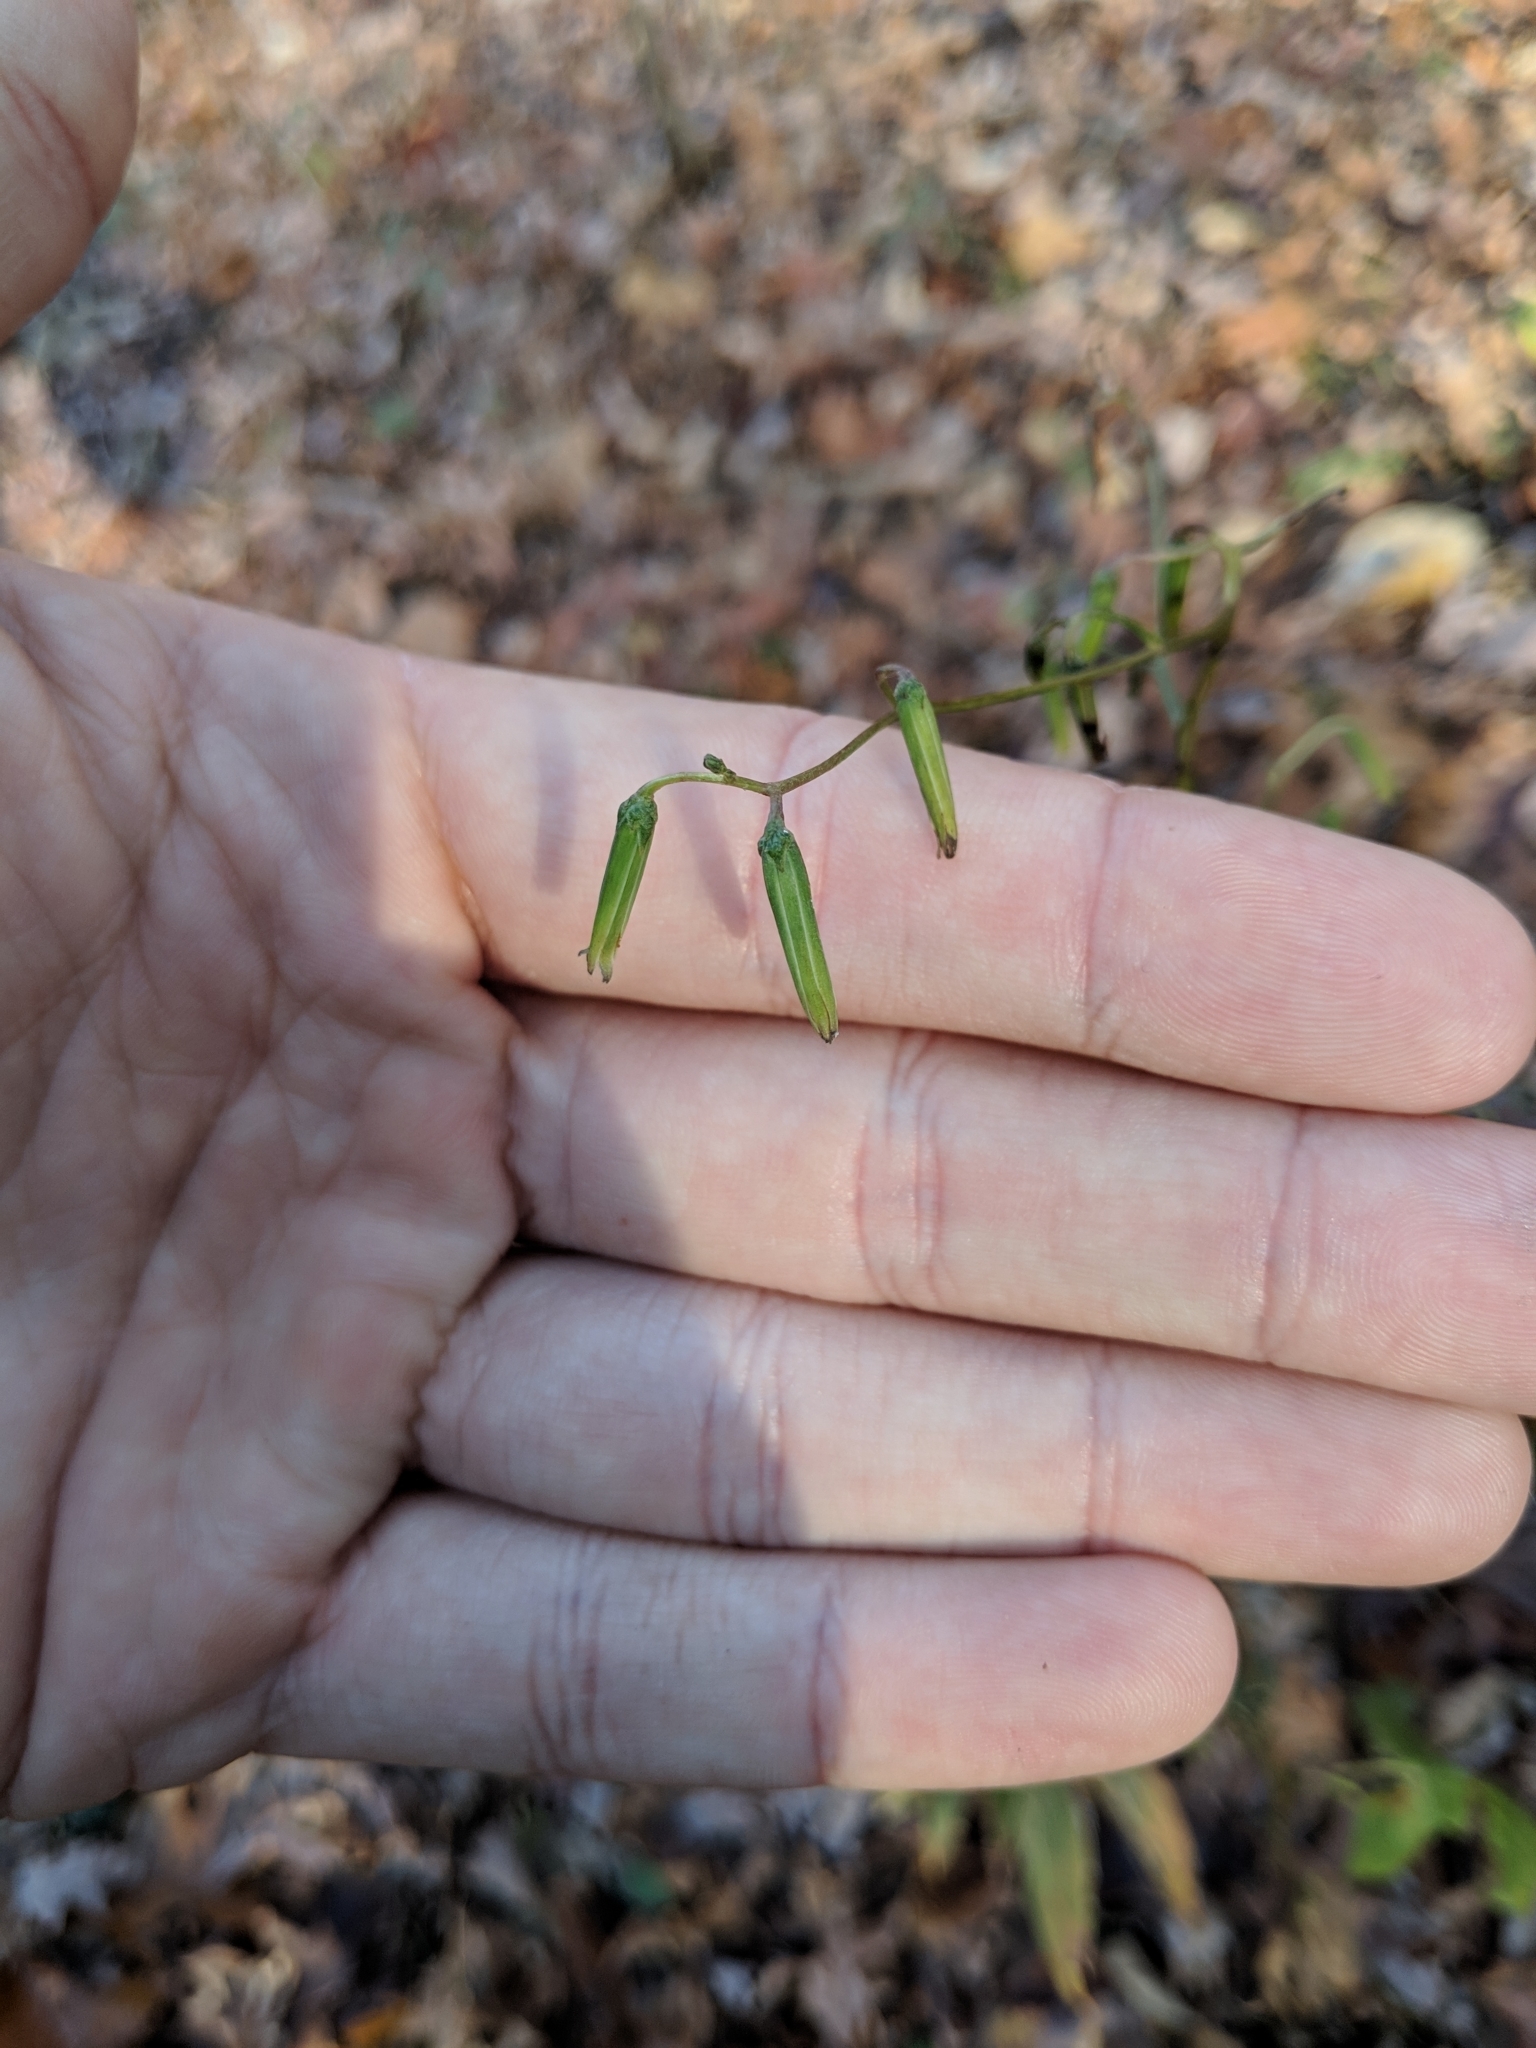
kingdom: Plantae
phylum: Tracheophyta
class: Magnoliopsida
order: Asterales
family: Asteraceae
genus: Nabalus
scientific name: Nabalus altissima
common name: Tall rattlesnakeroot
